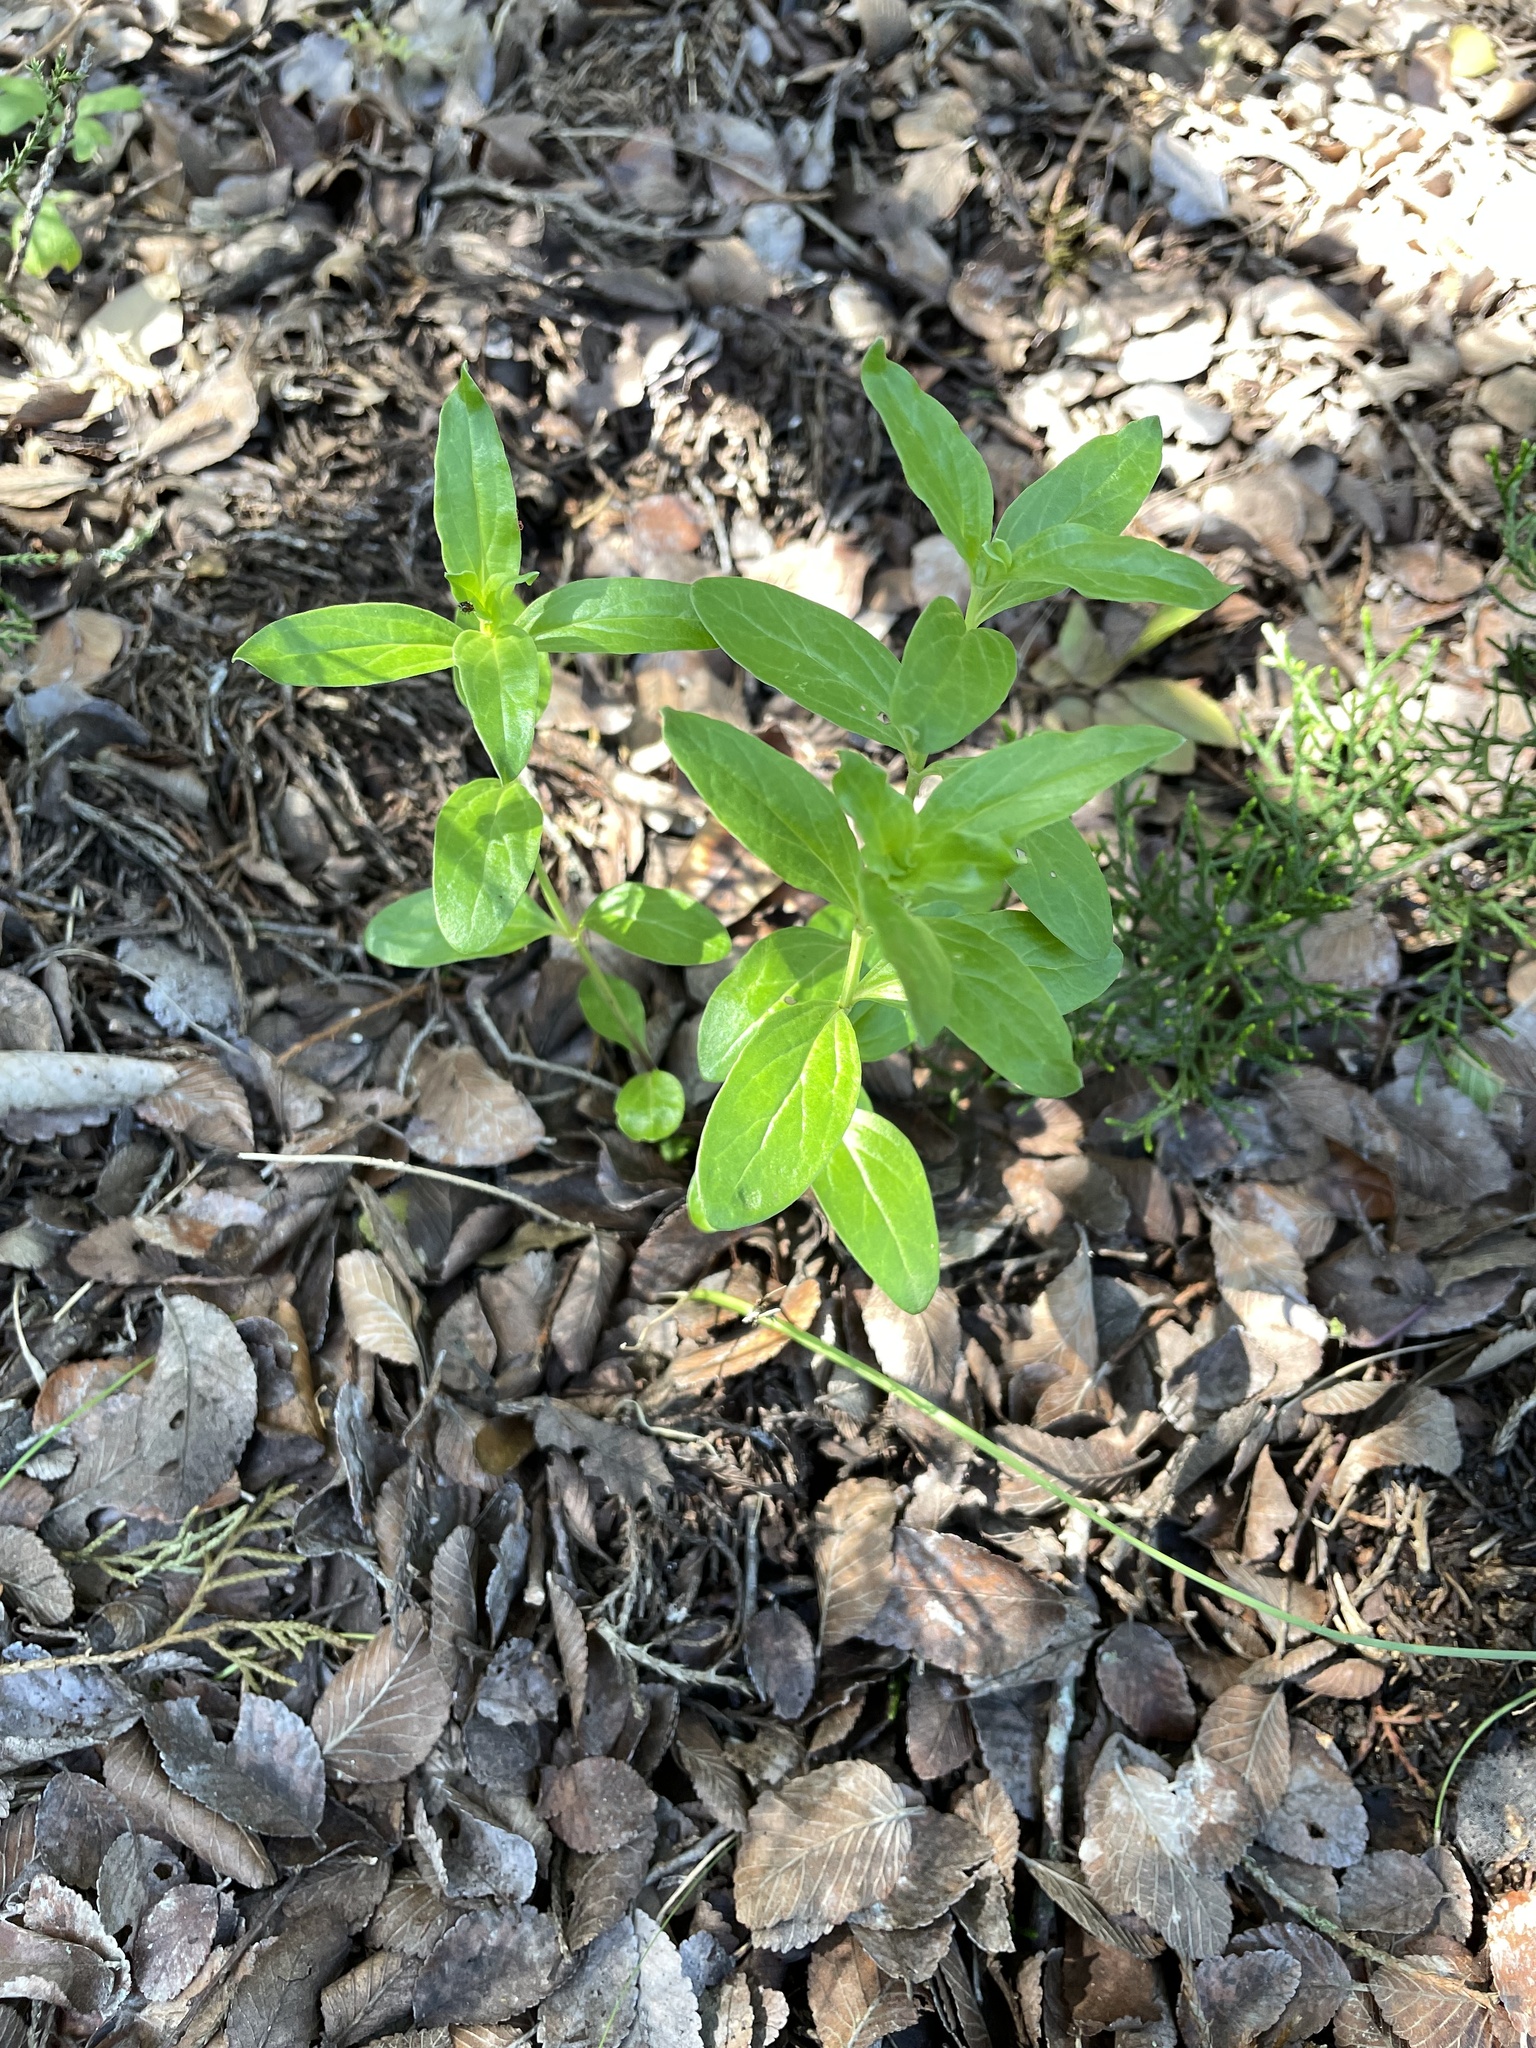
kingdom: Plantae
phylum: Tracheophyta
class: Magnoliopsida
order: Gentianales
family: Loganiaceae
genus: Spigelia
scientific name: Spigelia hedyotidea
